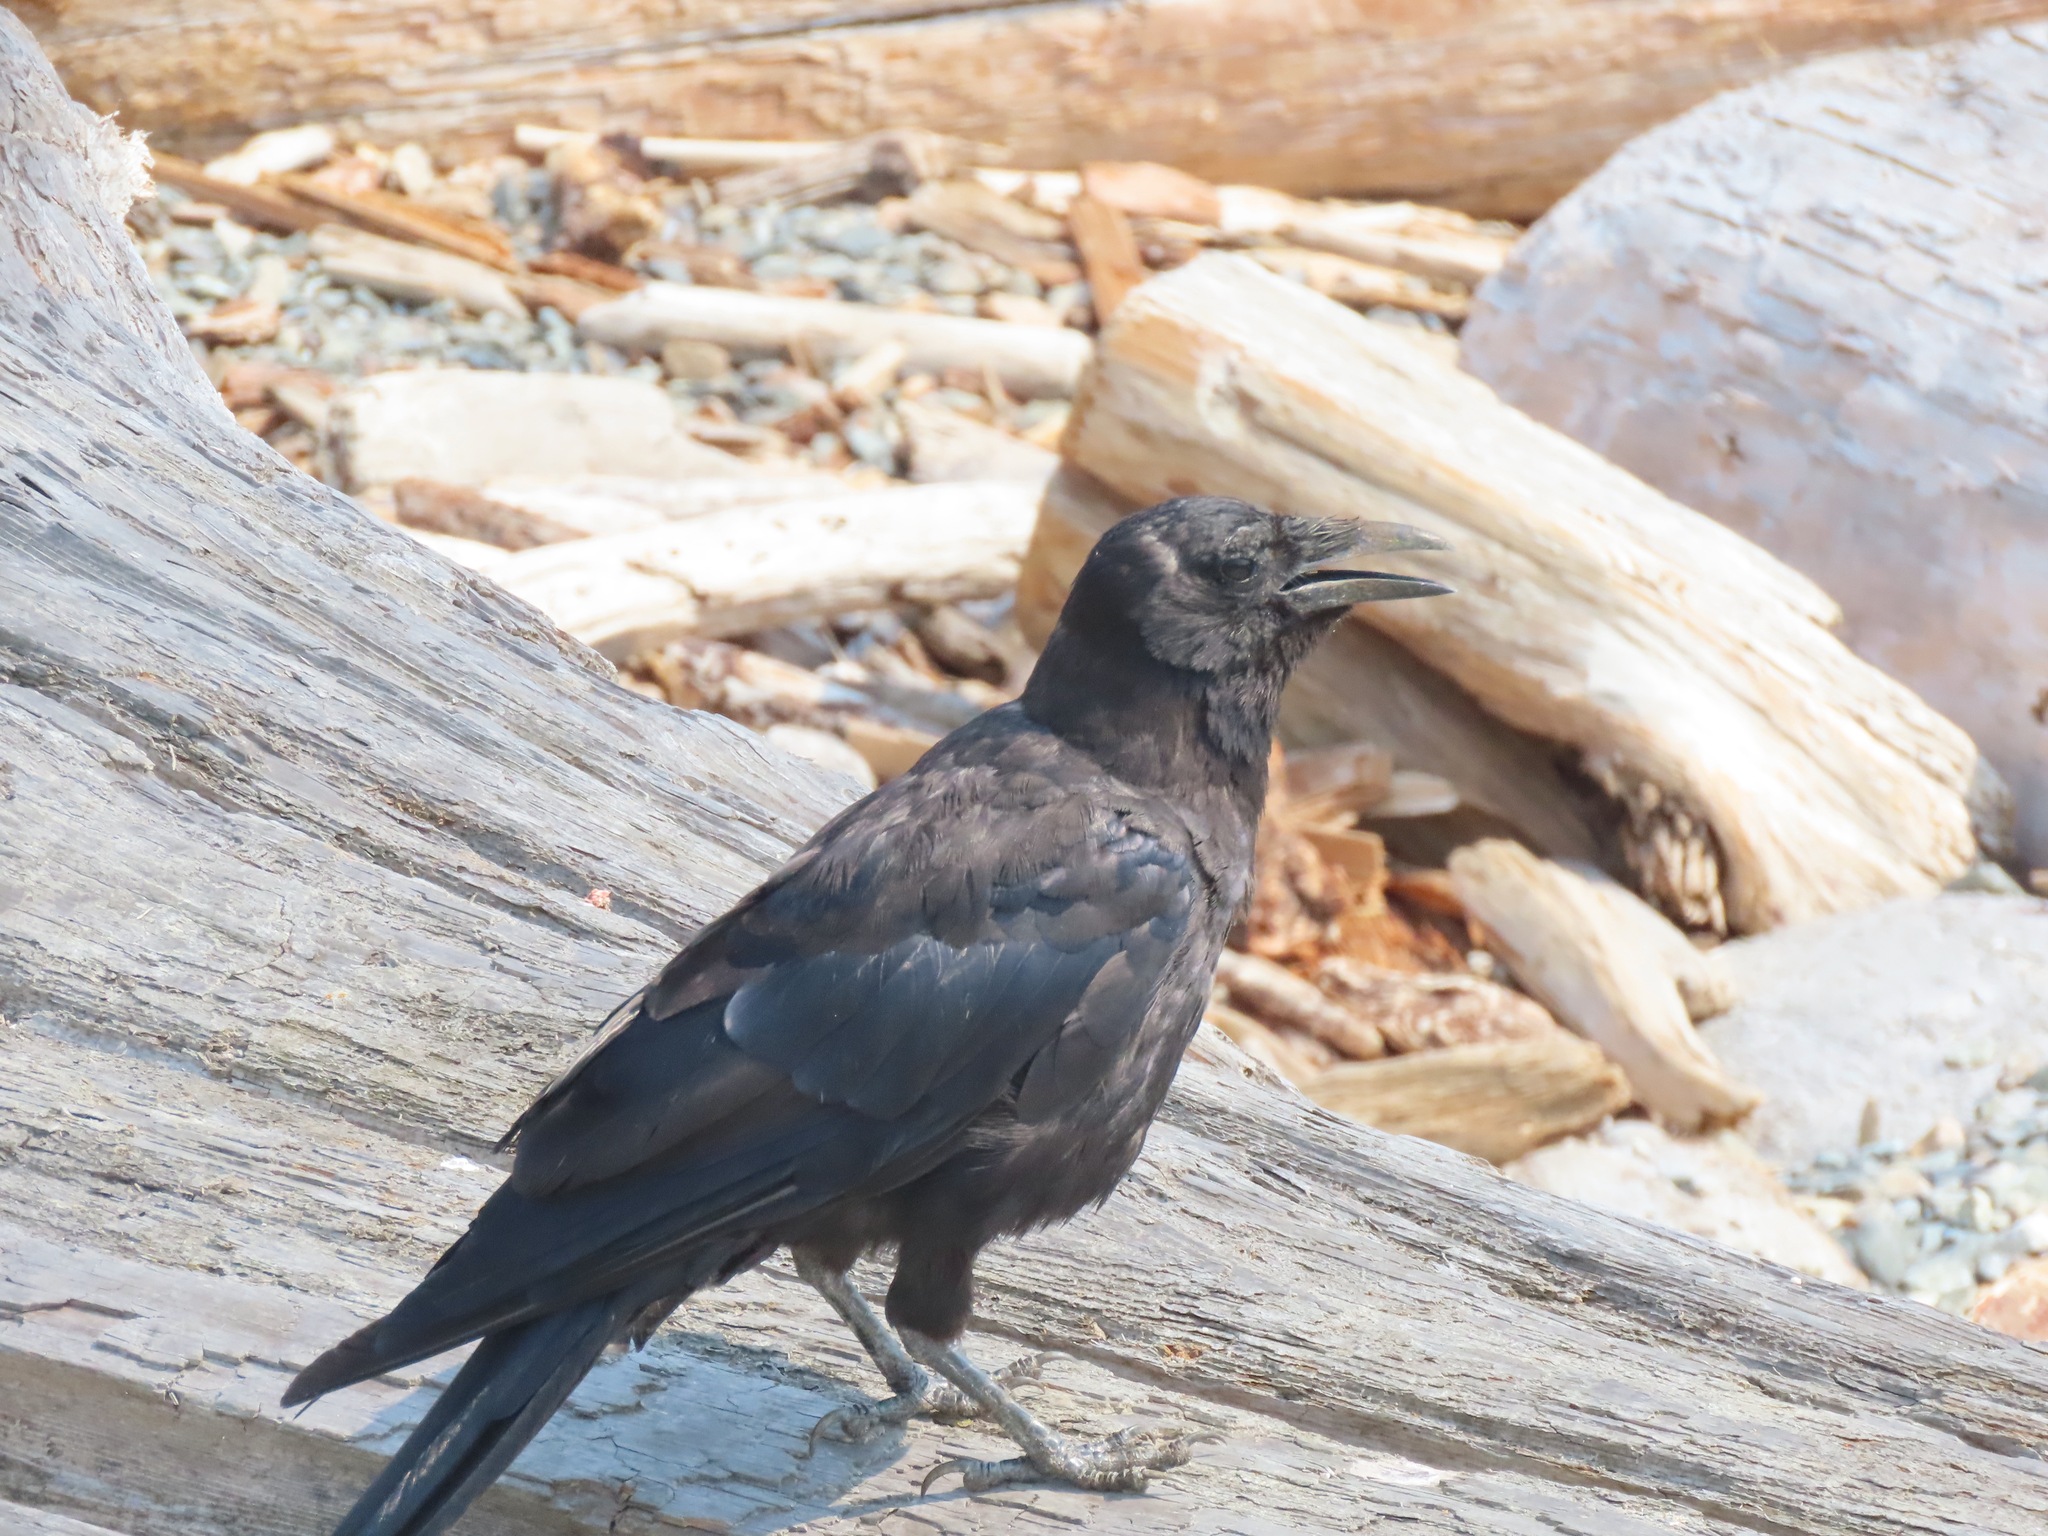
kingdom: Animalia
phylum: Chordata
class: Aves
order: Passeriformes
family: Corvidae
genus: Corvus
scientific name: Corvus brachyrhynchos
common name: American crow
